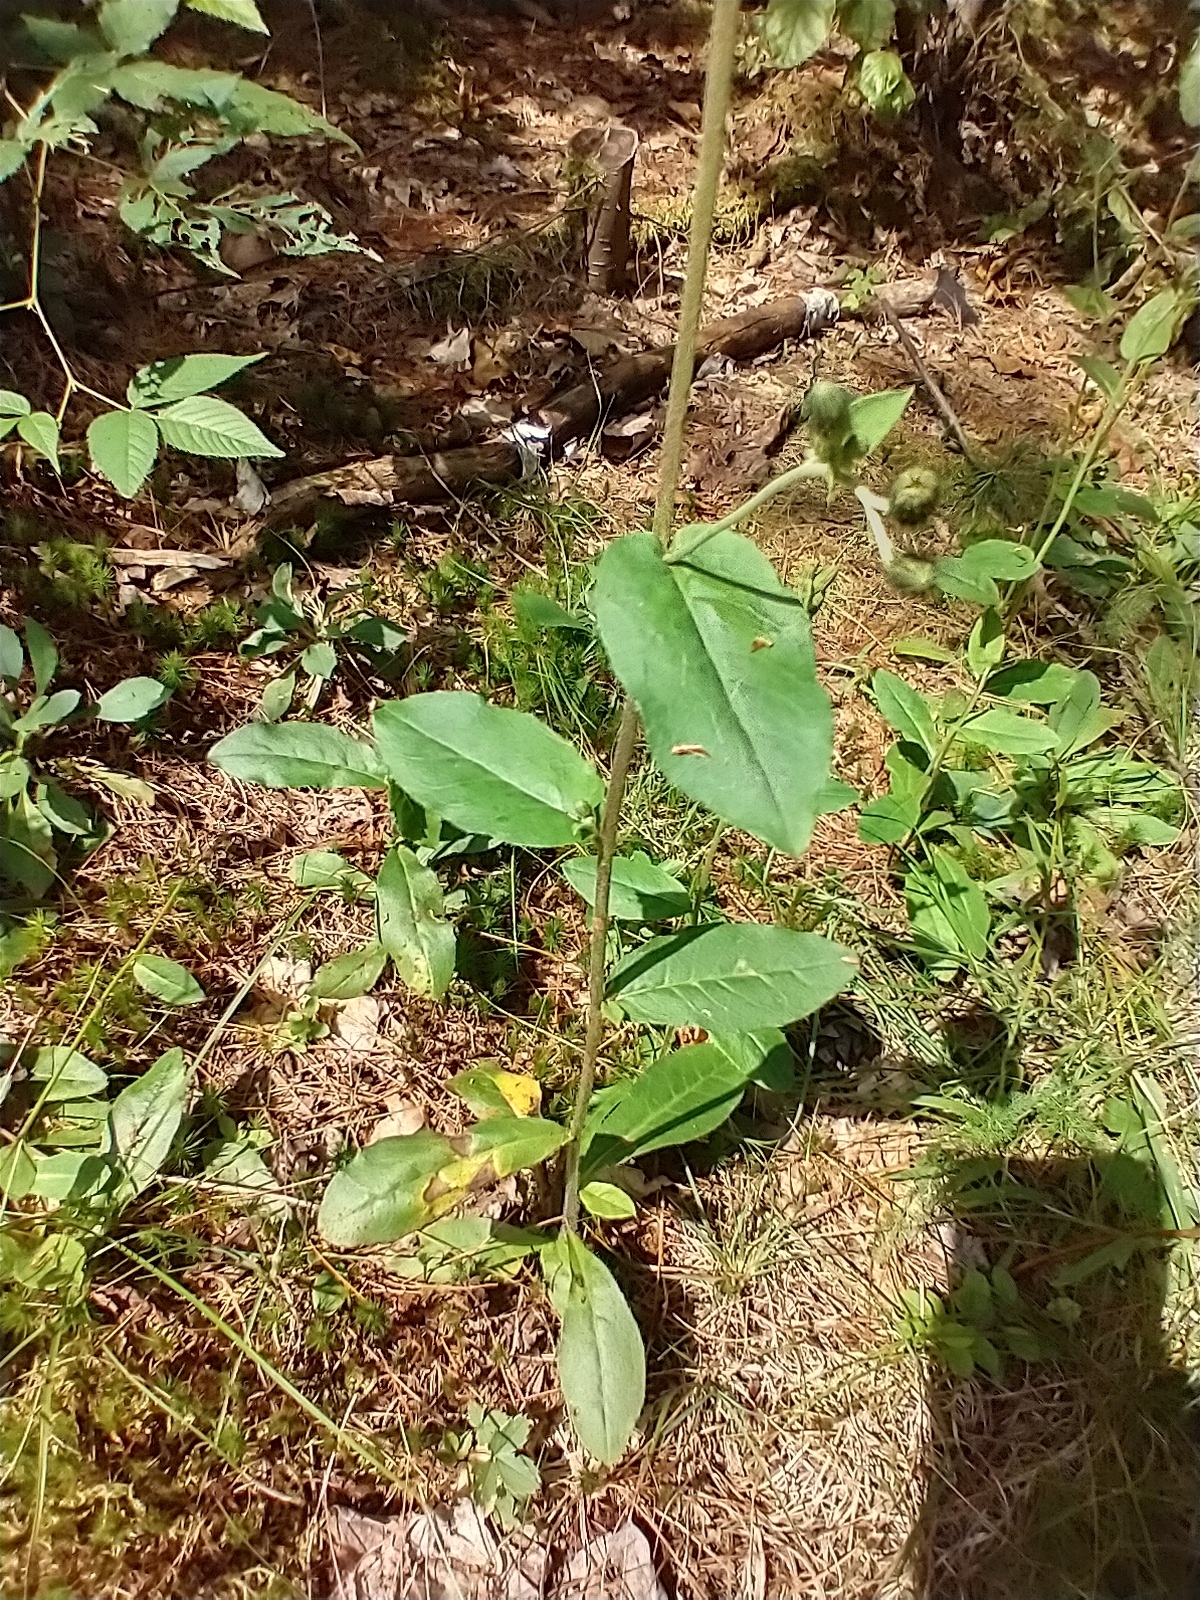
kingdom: Plantae
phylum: Tracheophyta
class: Magnoliopsida
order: Asterales
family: Asteraceae
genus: Hieracium
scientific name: Hieracium scabrum
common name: Rough hawkweed
